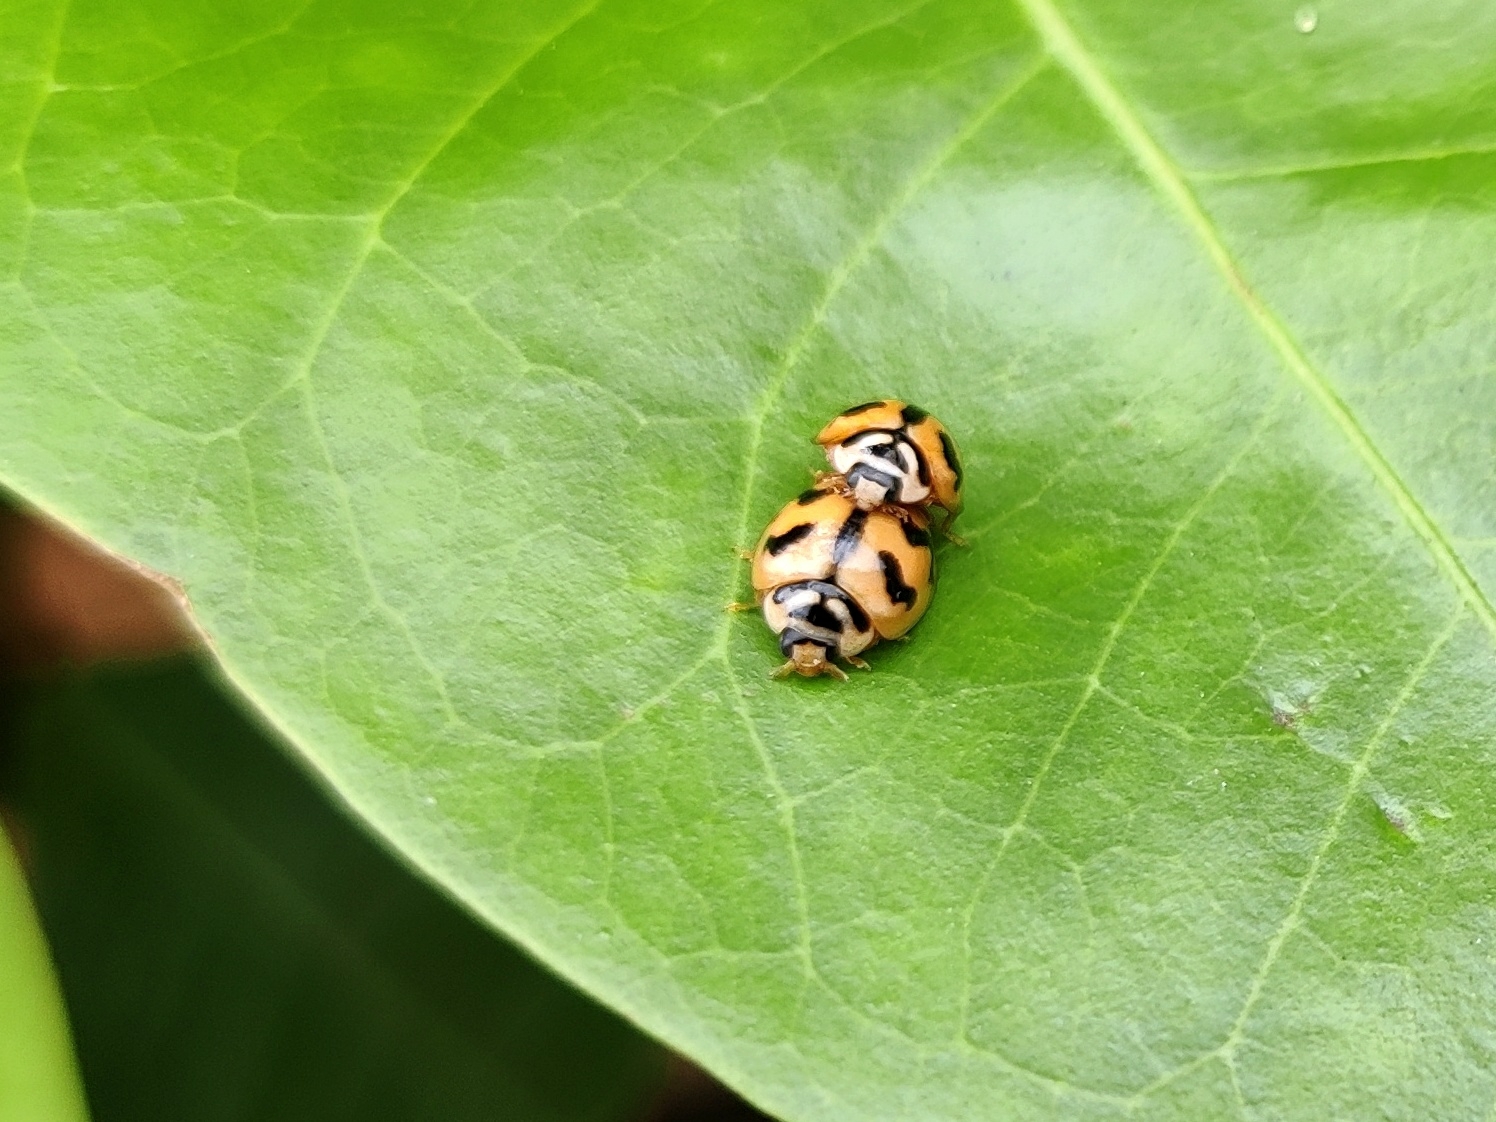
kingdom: Animalia
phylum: Arthropoda
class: Insecta
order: Coleoptera
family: Coccinellidae
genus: Cheilomenes
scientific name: Cheilomenes sexmaculata
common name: Ladybird beetle
